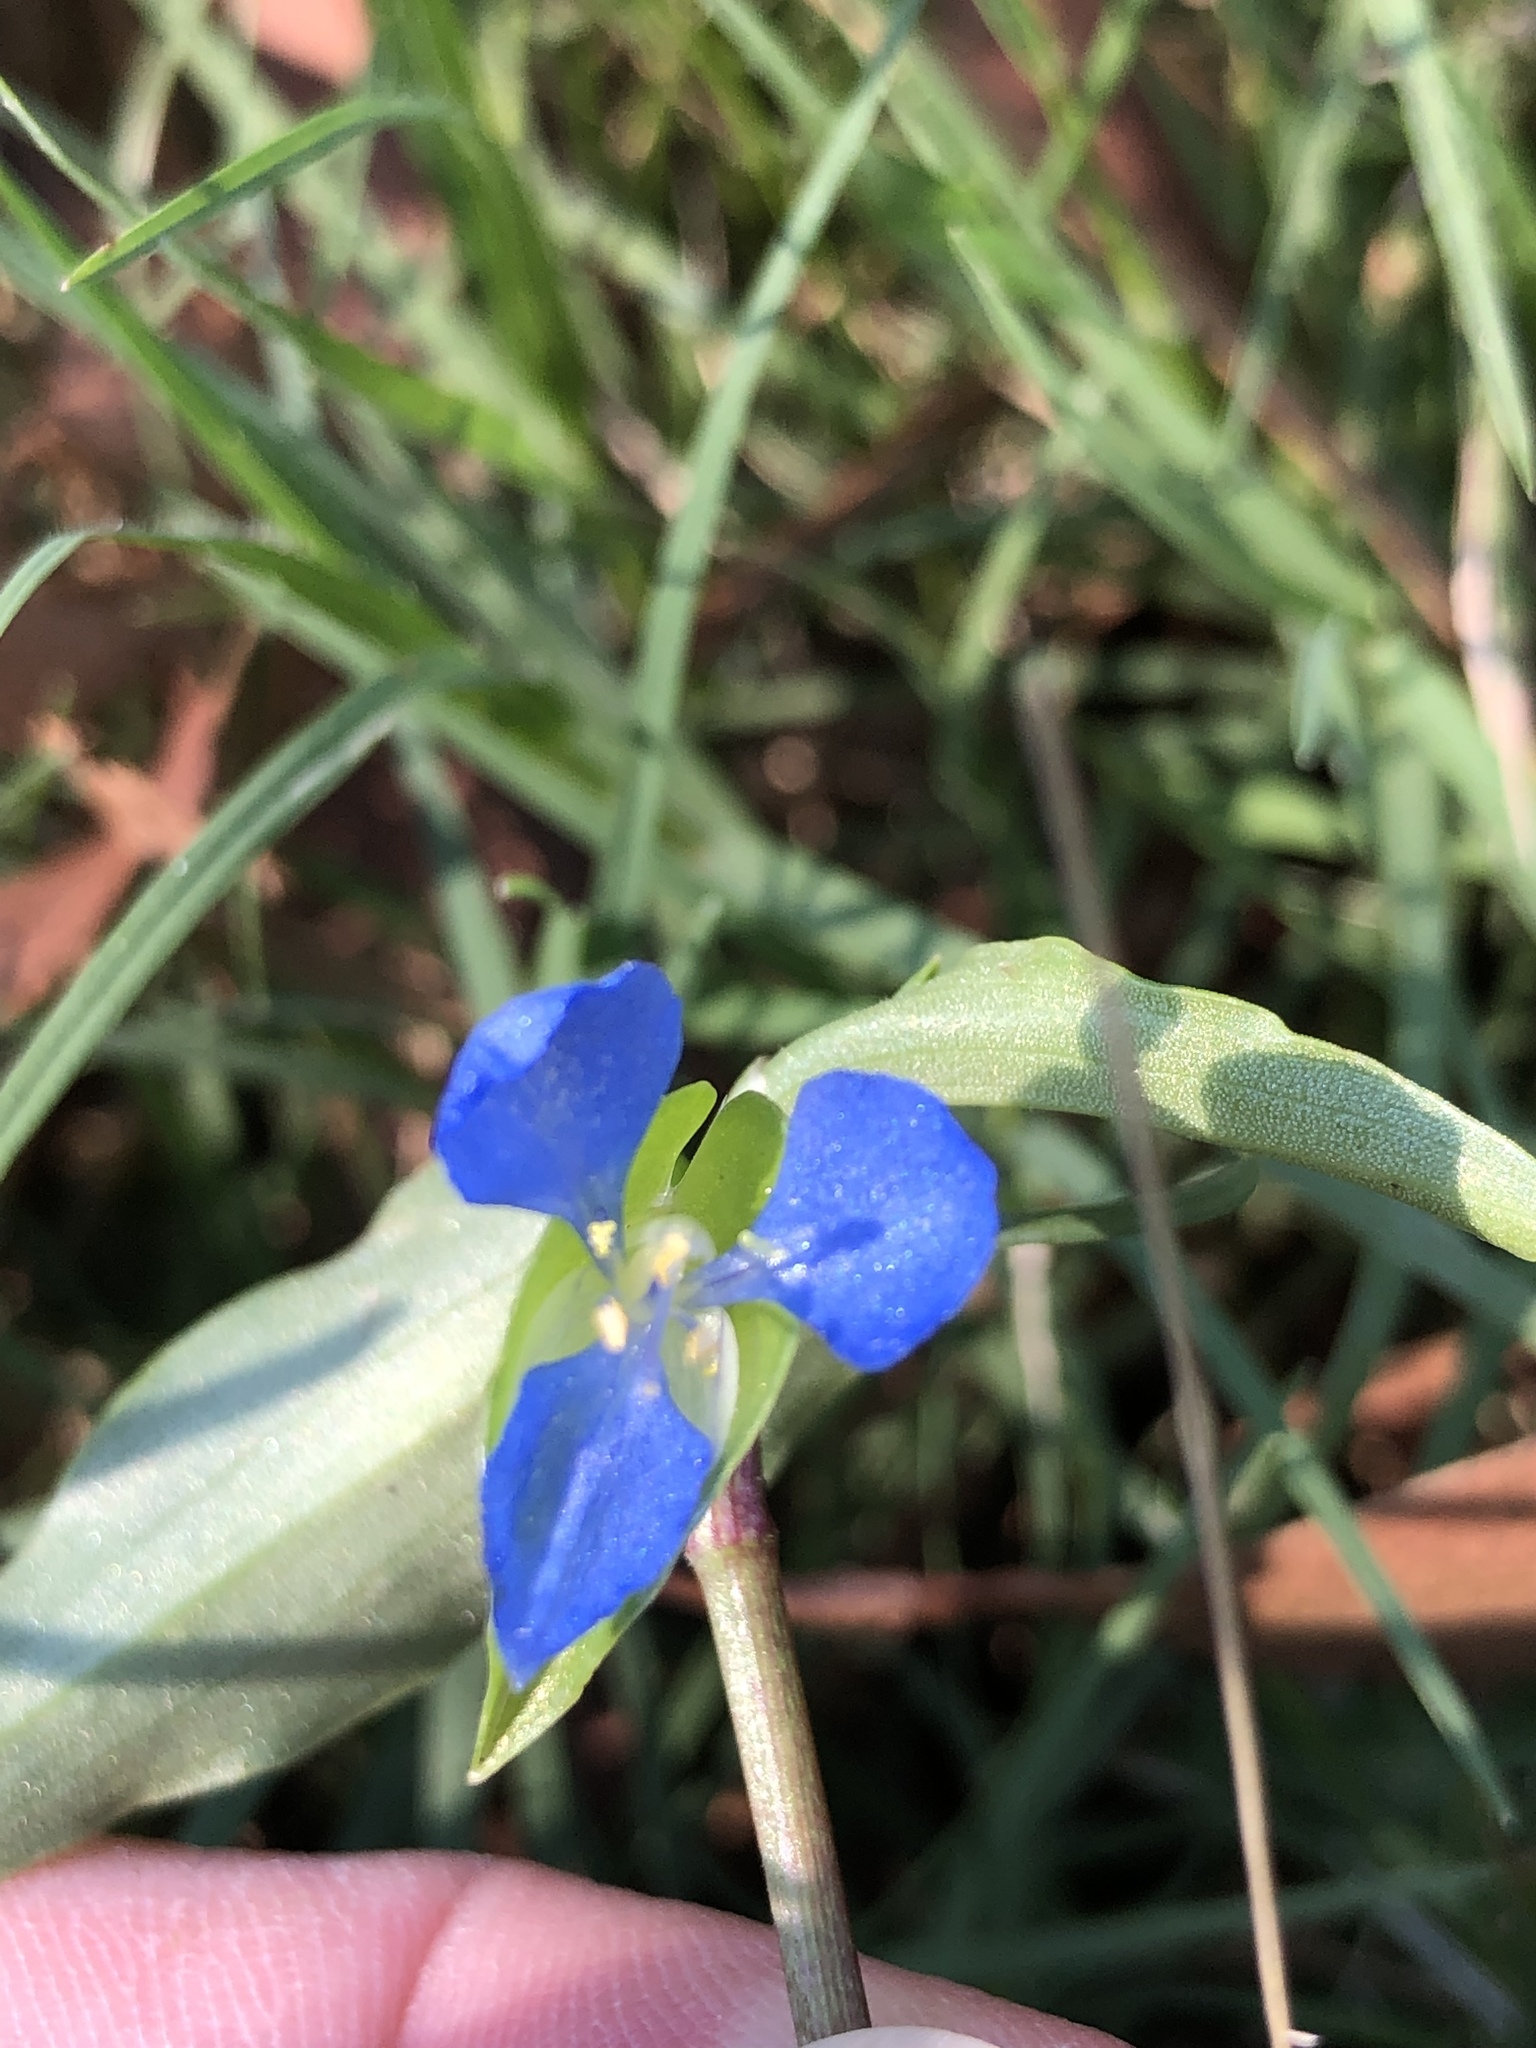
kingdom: Plantae
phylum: Tracheophyta
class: Liliopsida
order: Commelinales
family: Commelinaceae
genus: Commelina
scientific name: Commelina cyanea
